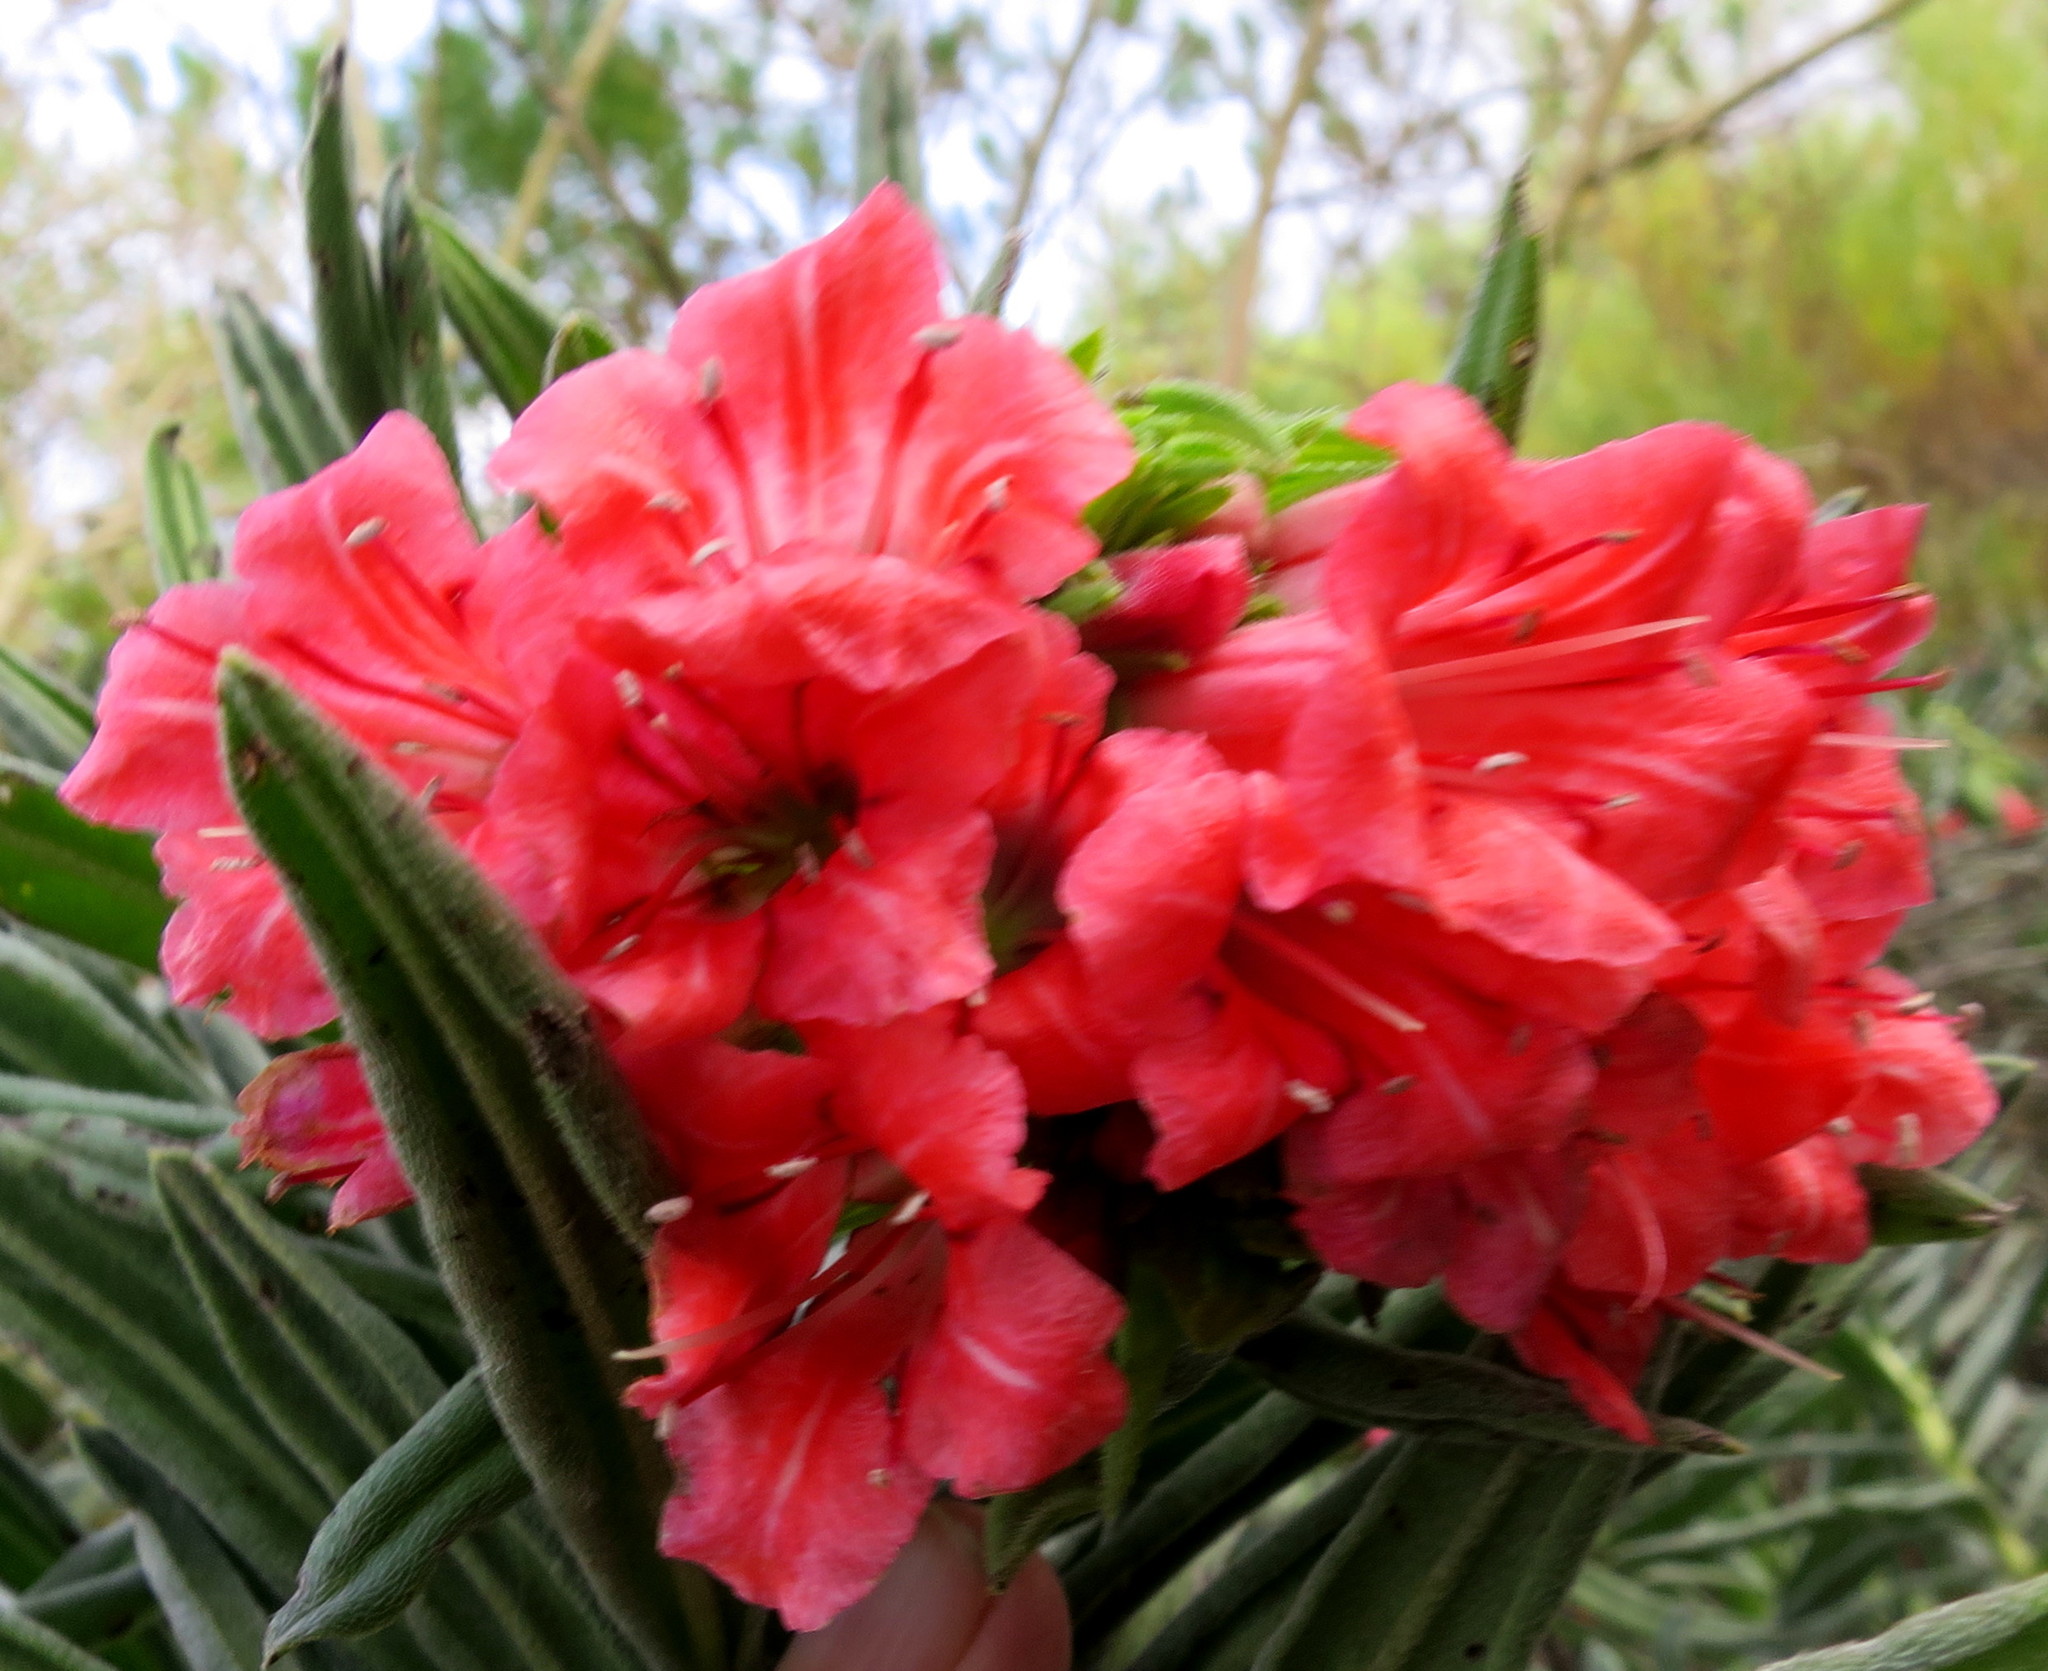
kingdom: Plantae
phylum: Tracheophyta
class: Magnoliopsida
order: Boraginales
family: Boraginaceae
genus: Lobostemon
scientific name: Lobostemon belliformis
